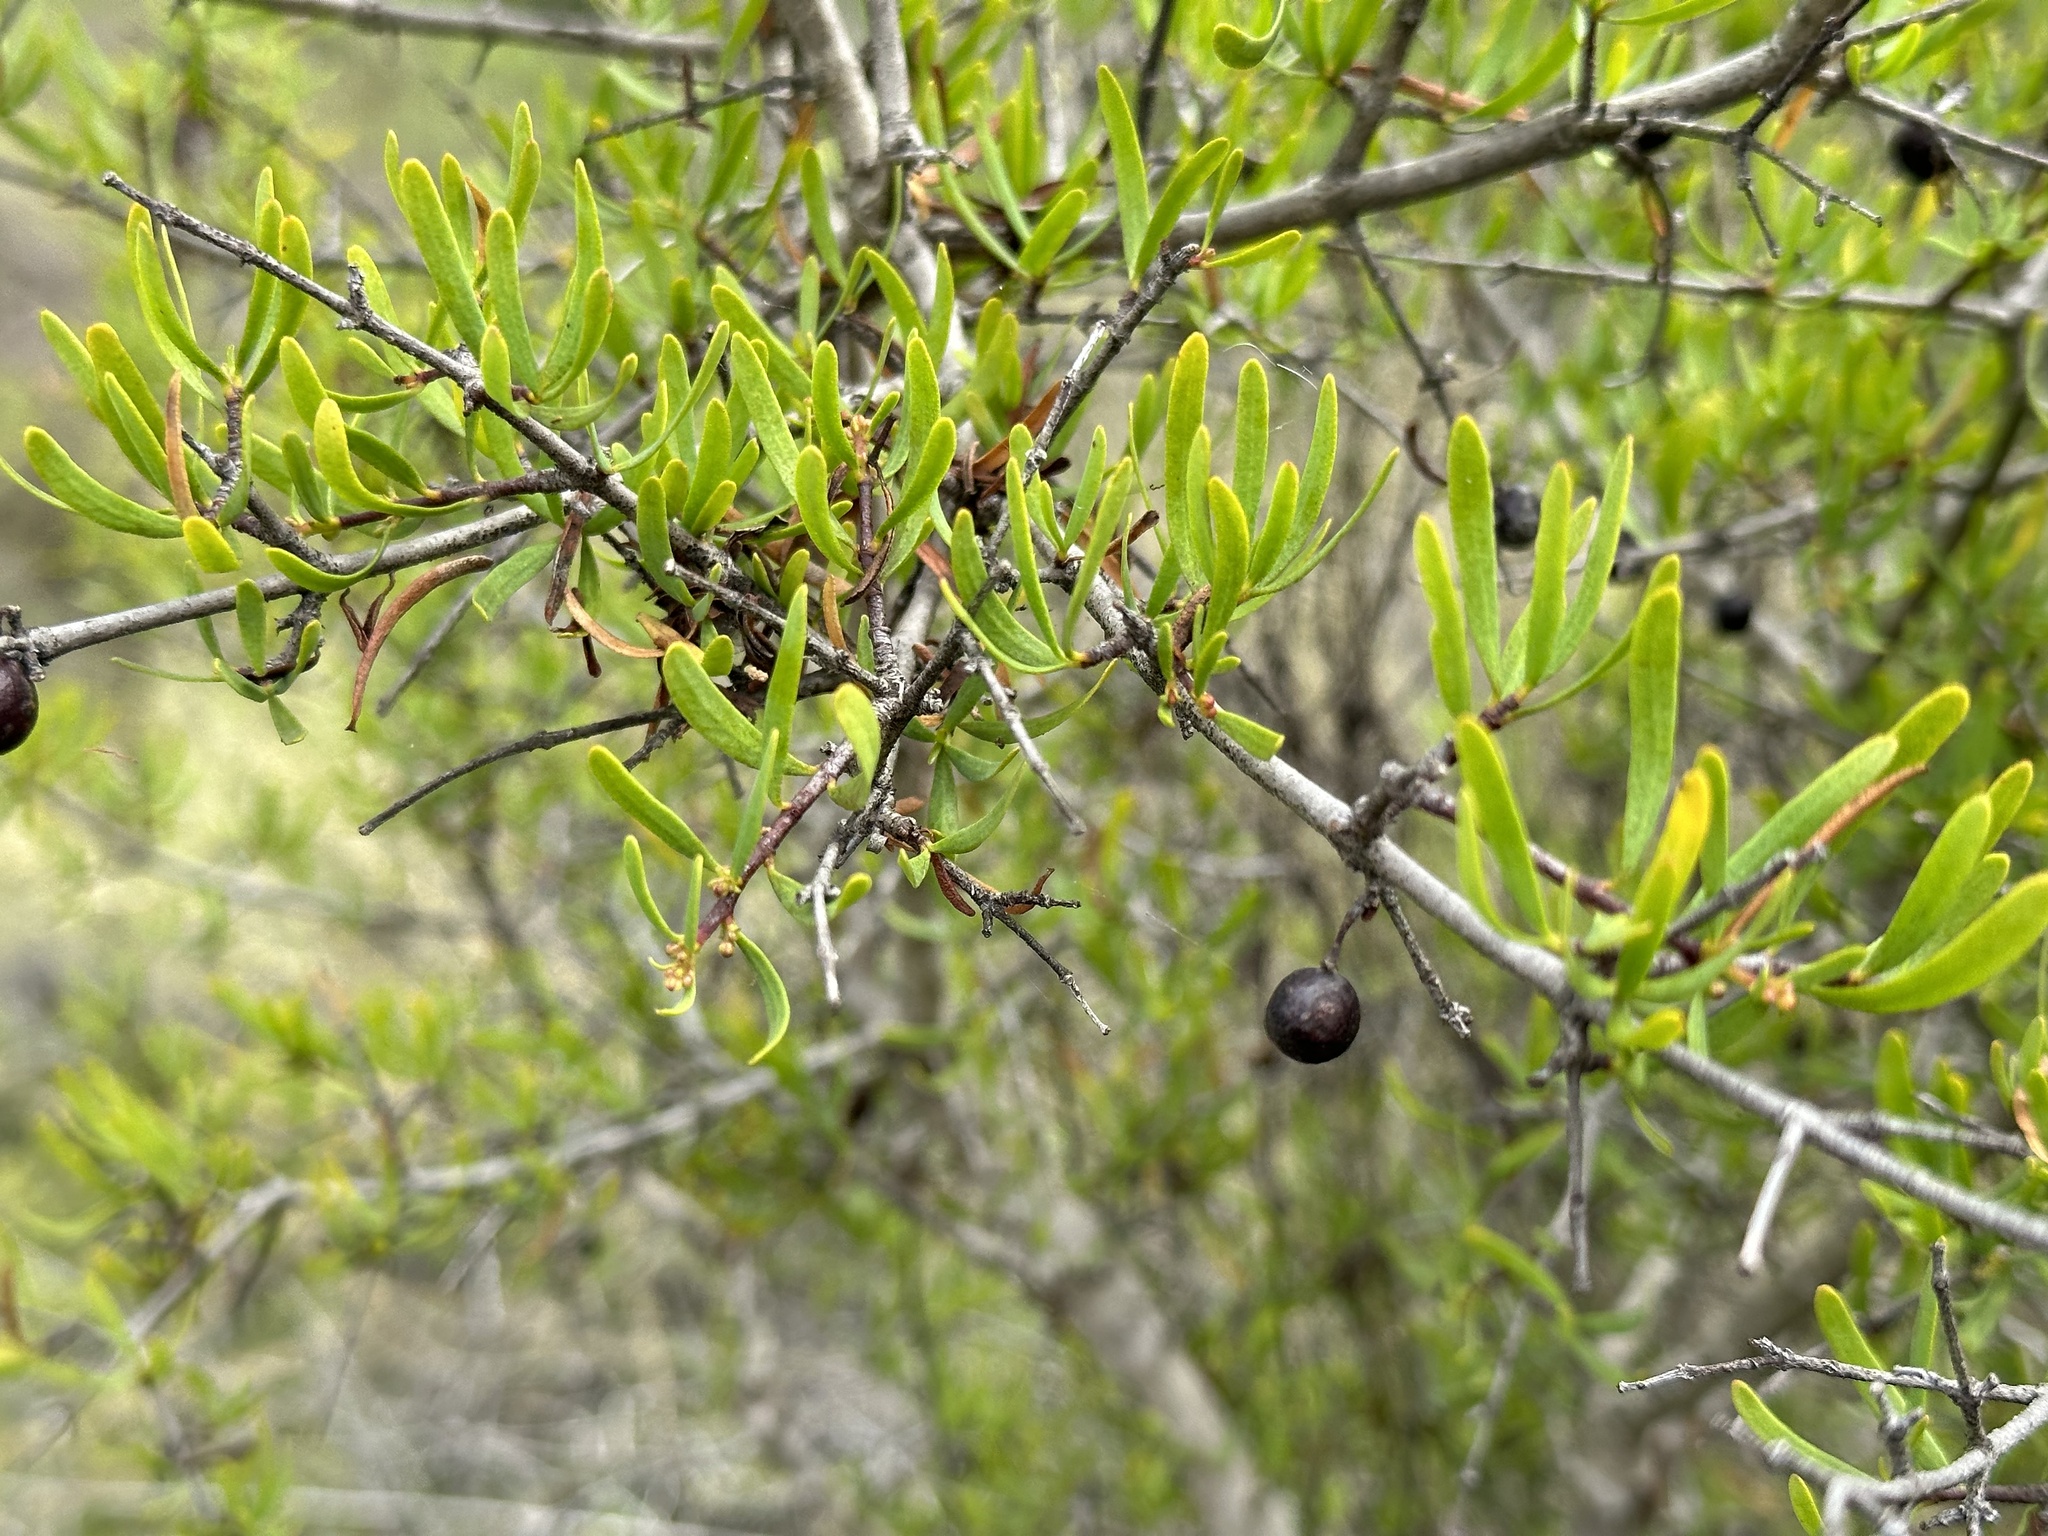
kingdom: Plantae
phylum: Tracheophyta
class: Magnoliopsida
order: Sapindales
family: Rutaceae
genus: Cneoridium
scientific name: Cneoridium dumosum
